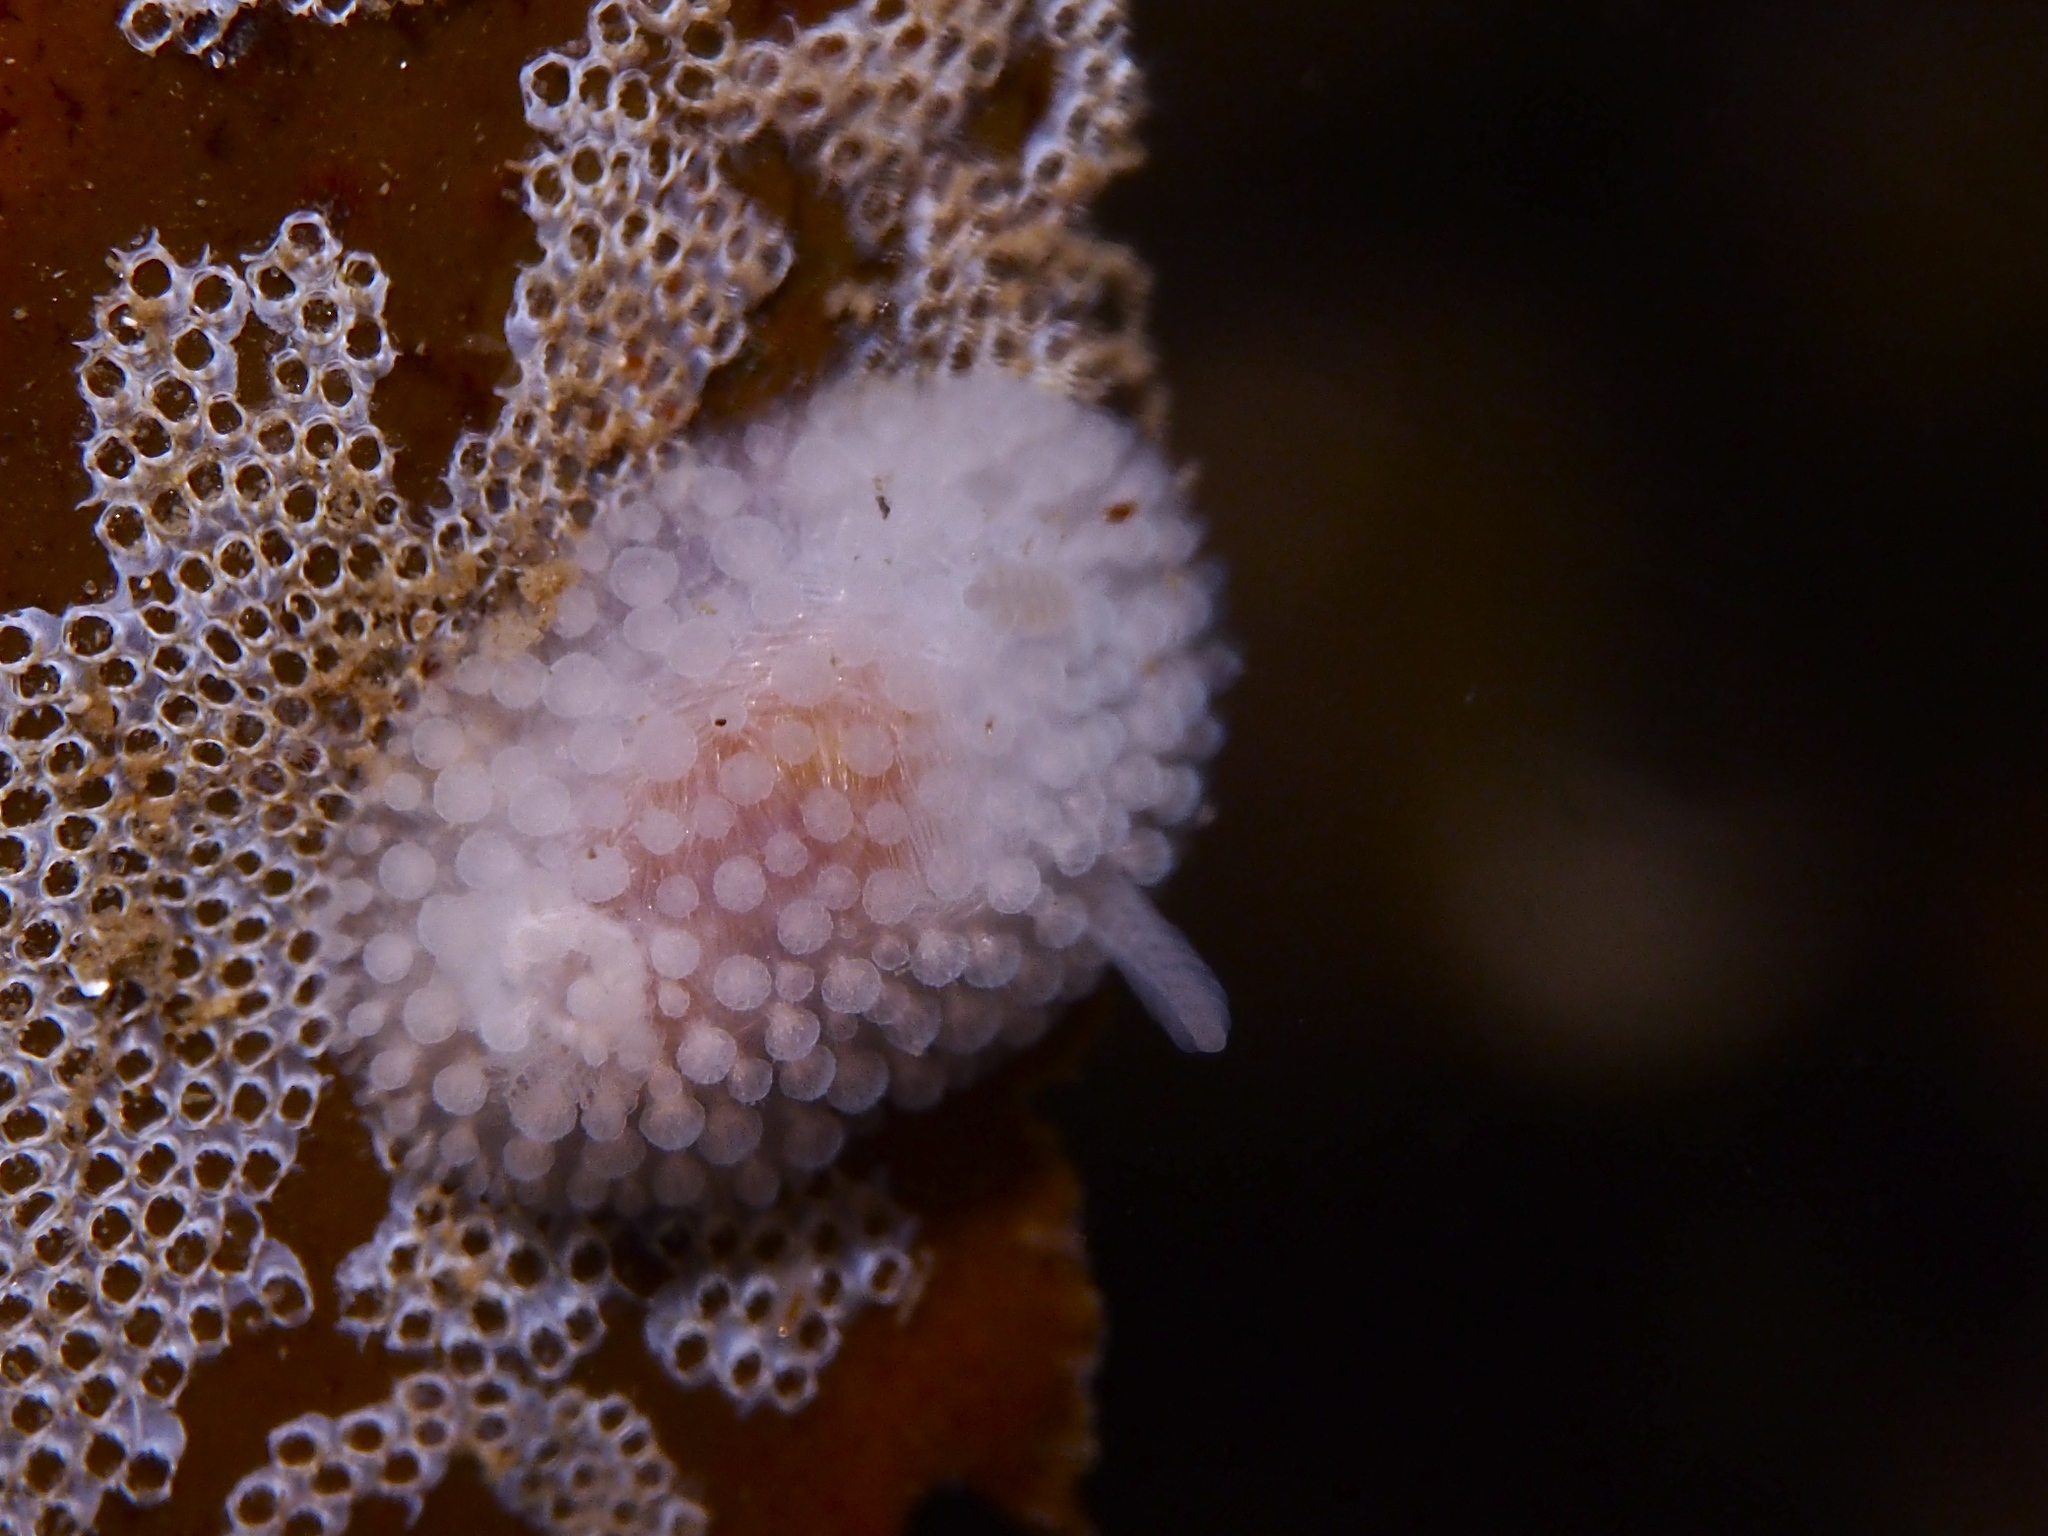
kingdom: Animalia
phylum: Mollusca
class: Gastropoda
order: Nudibranchia
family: Onchidorididae
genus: Onchidoris
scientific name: Onchidoris muricata
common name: Rough doris
